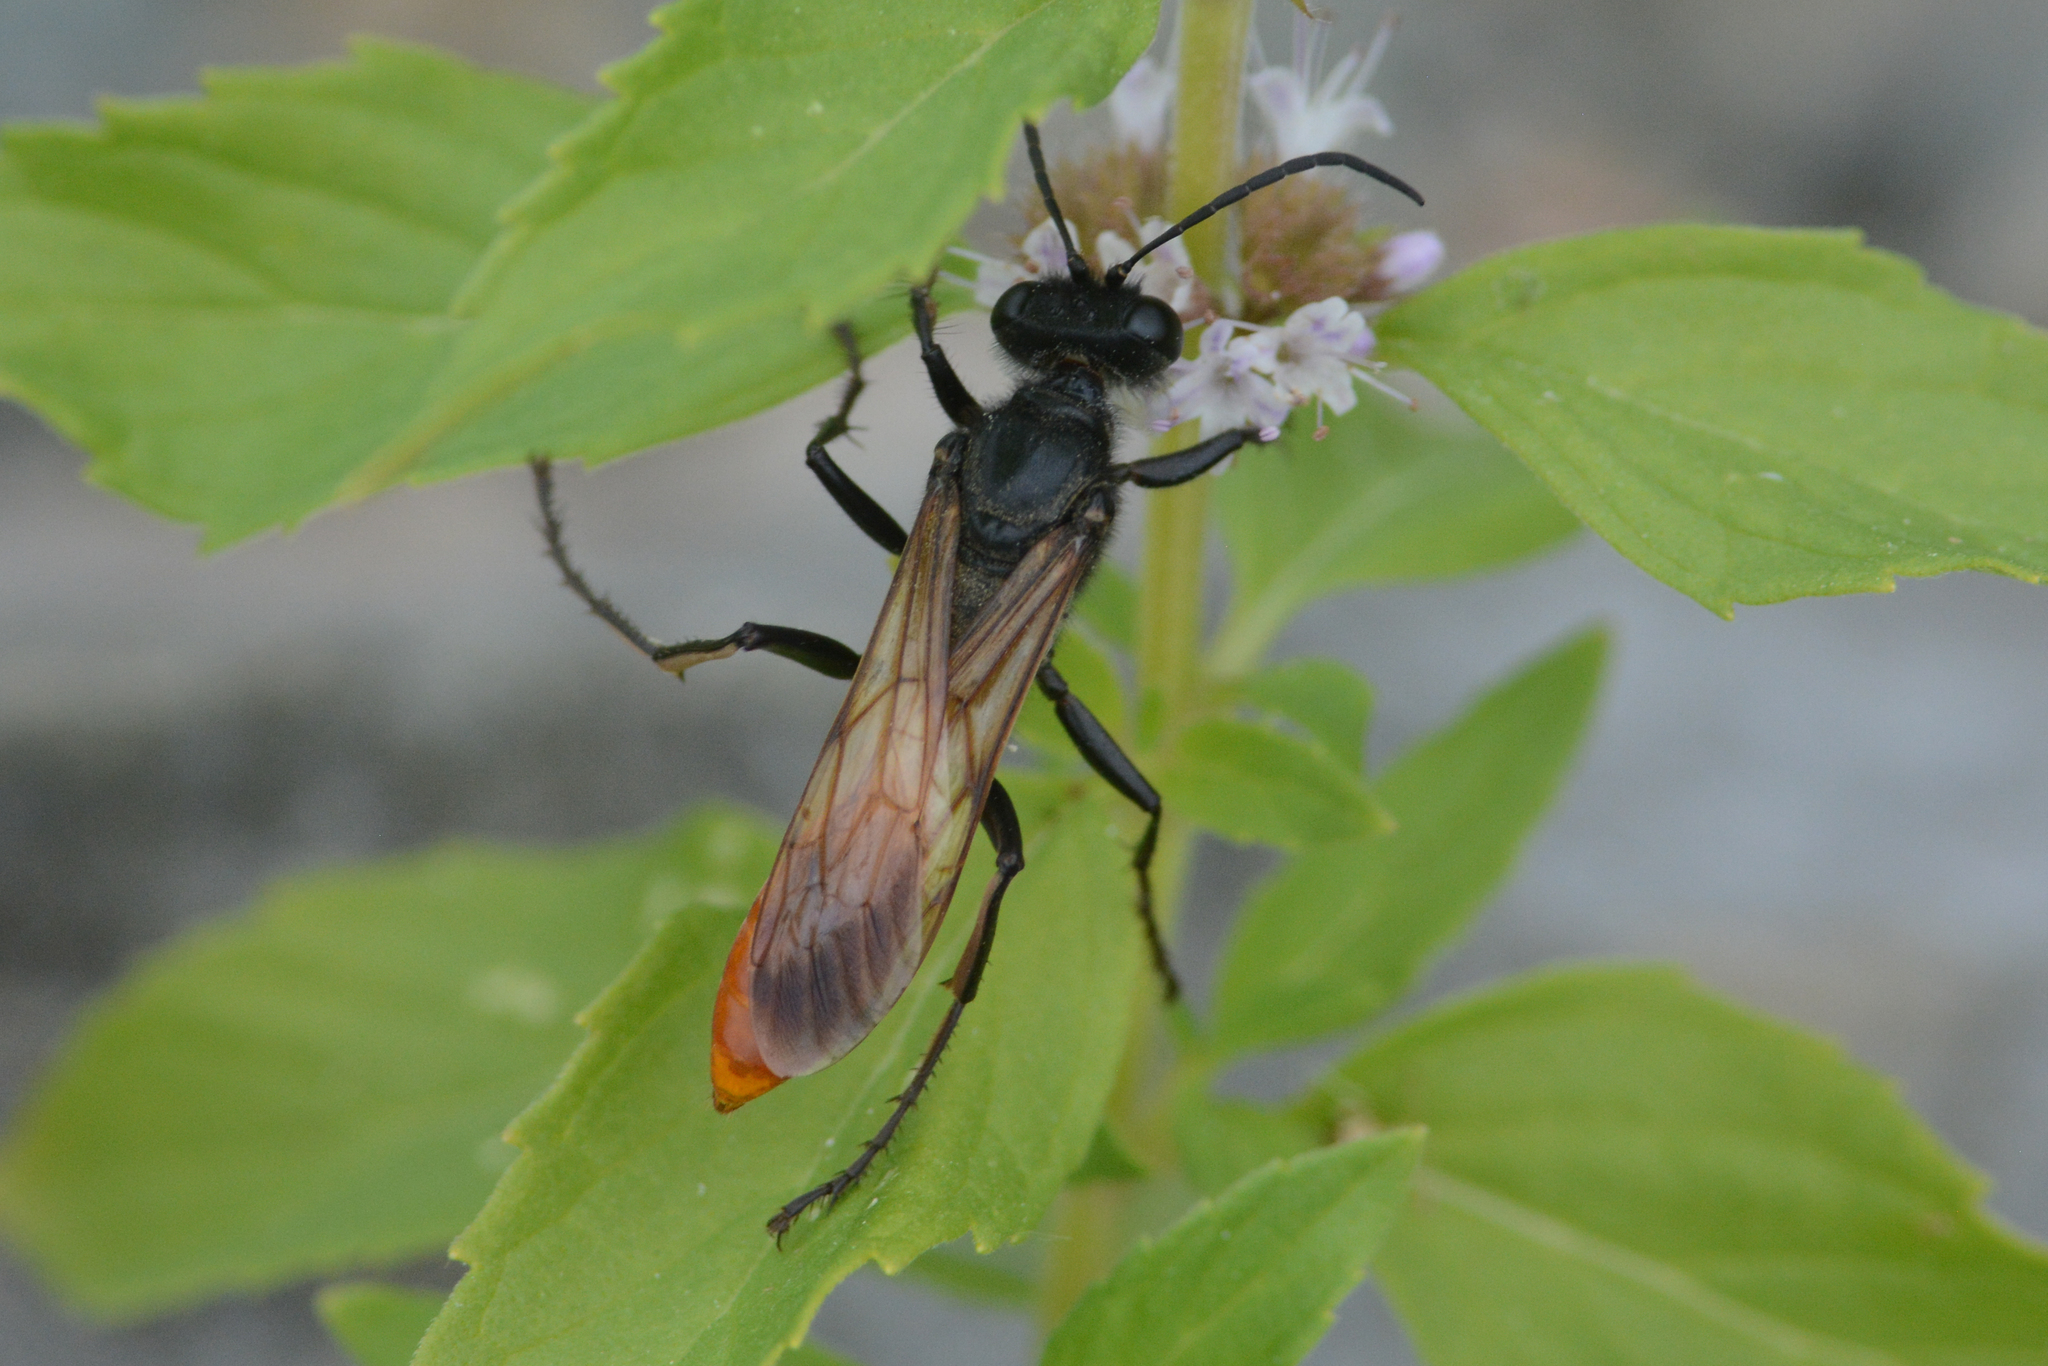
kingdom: Animalia
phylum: Arthropoda
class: Insecta
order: Hymenoptera
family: Sphecidae
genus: Sphex
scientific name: Sphex lucae
